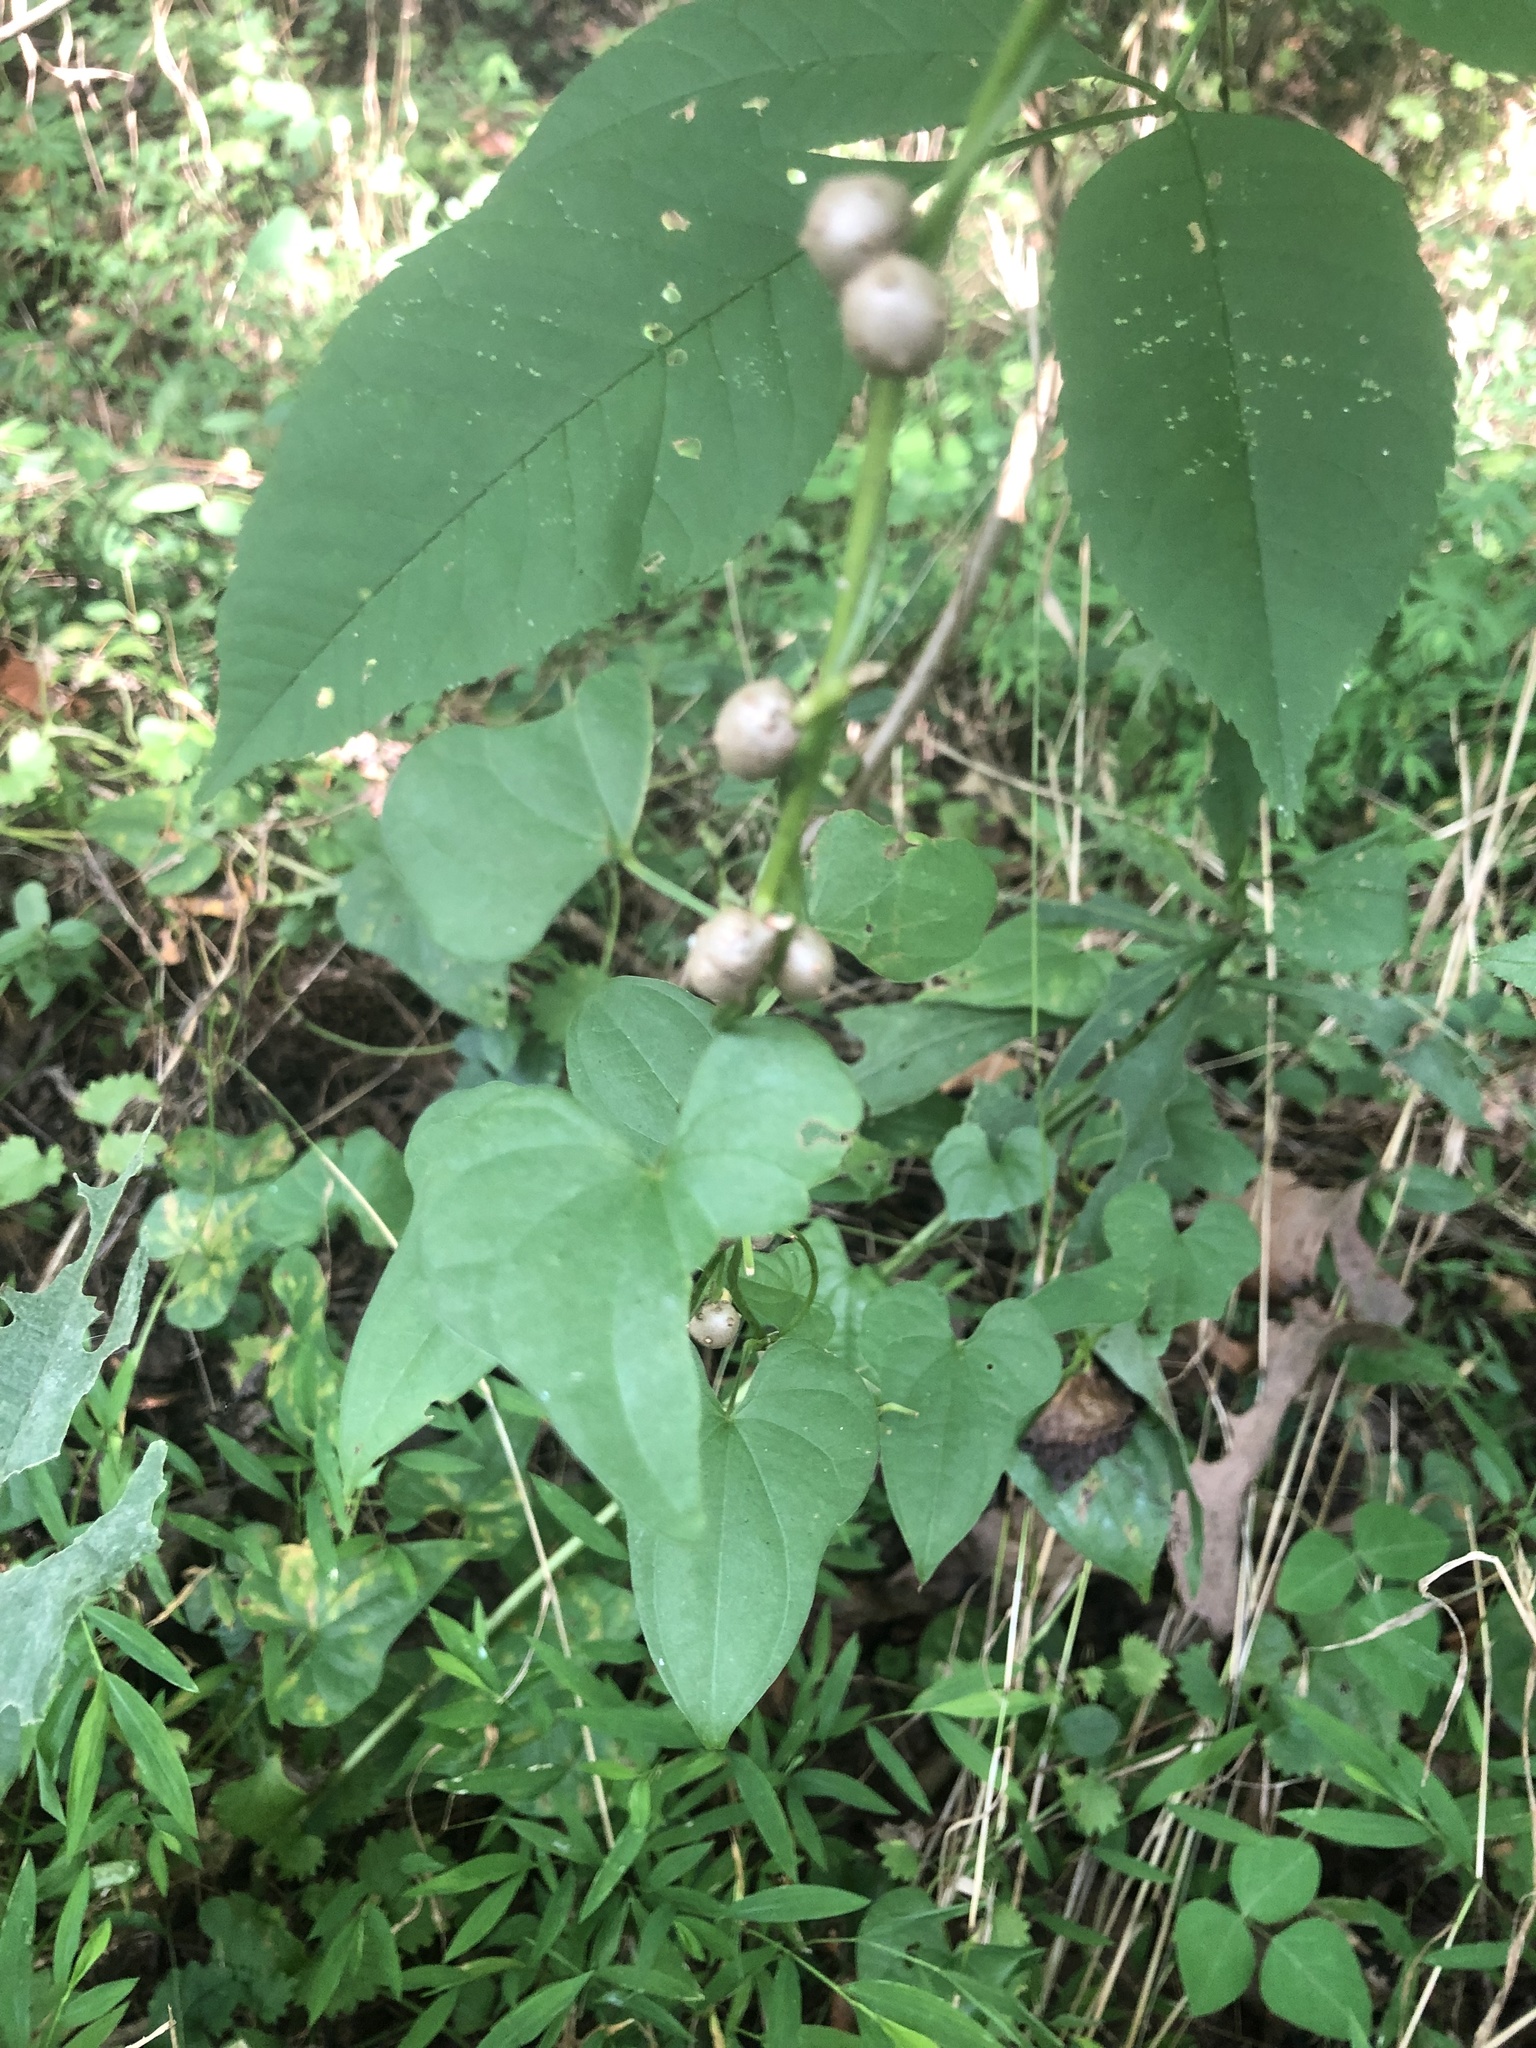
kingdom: Plantae
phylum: Tracheophyta
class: Liliopsida
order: Dioscoreales
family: Dioscoreaceae
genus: Dioscorea
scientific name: Dioscorea polystachya
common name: Chinese yam
